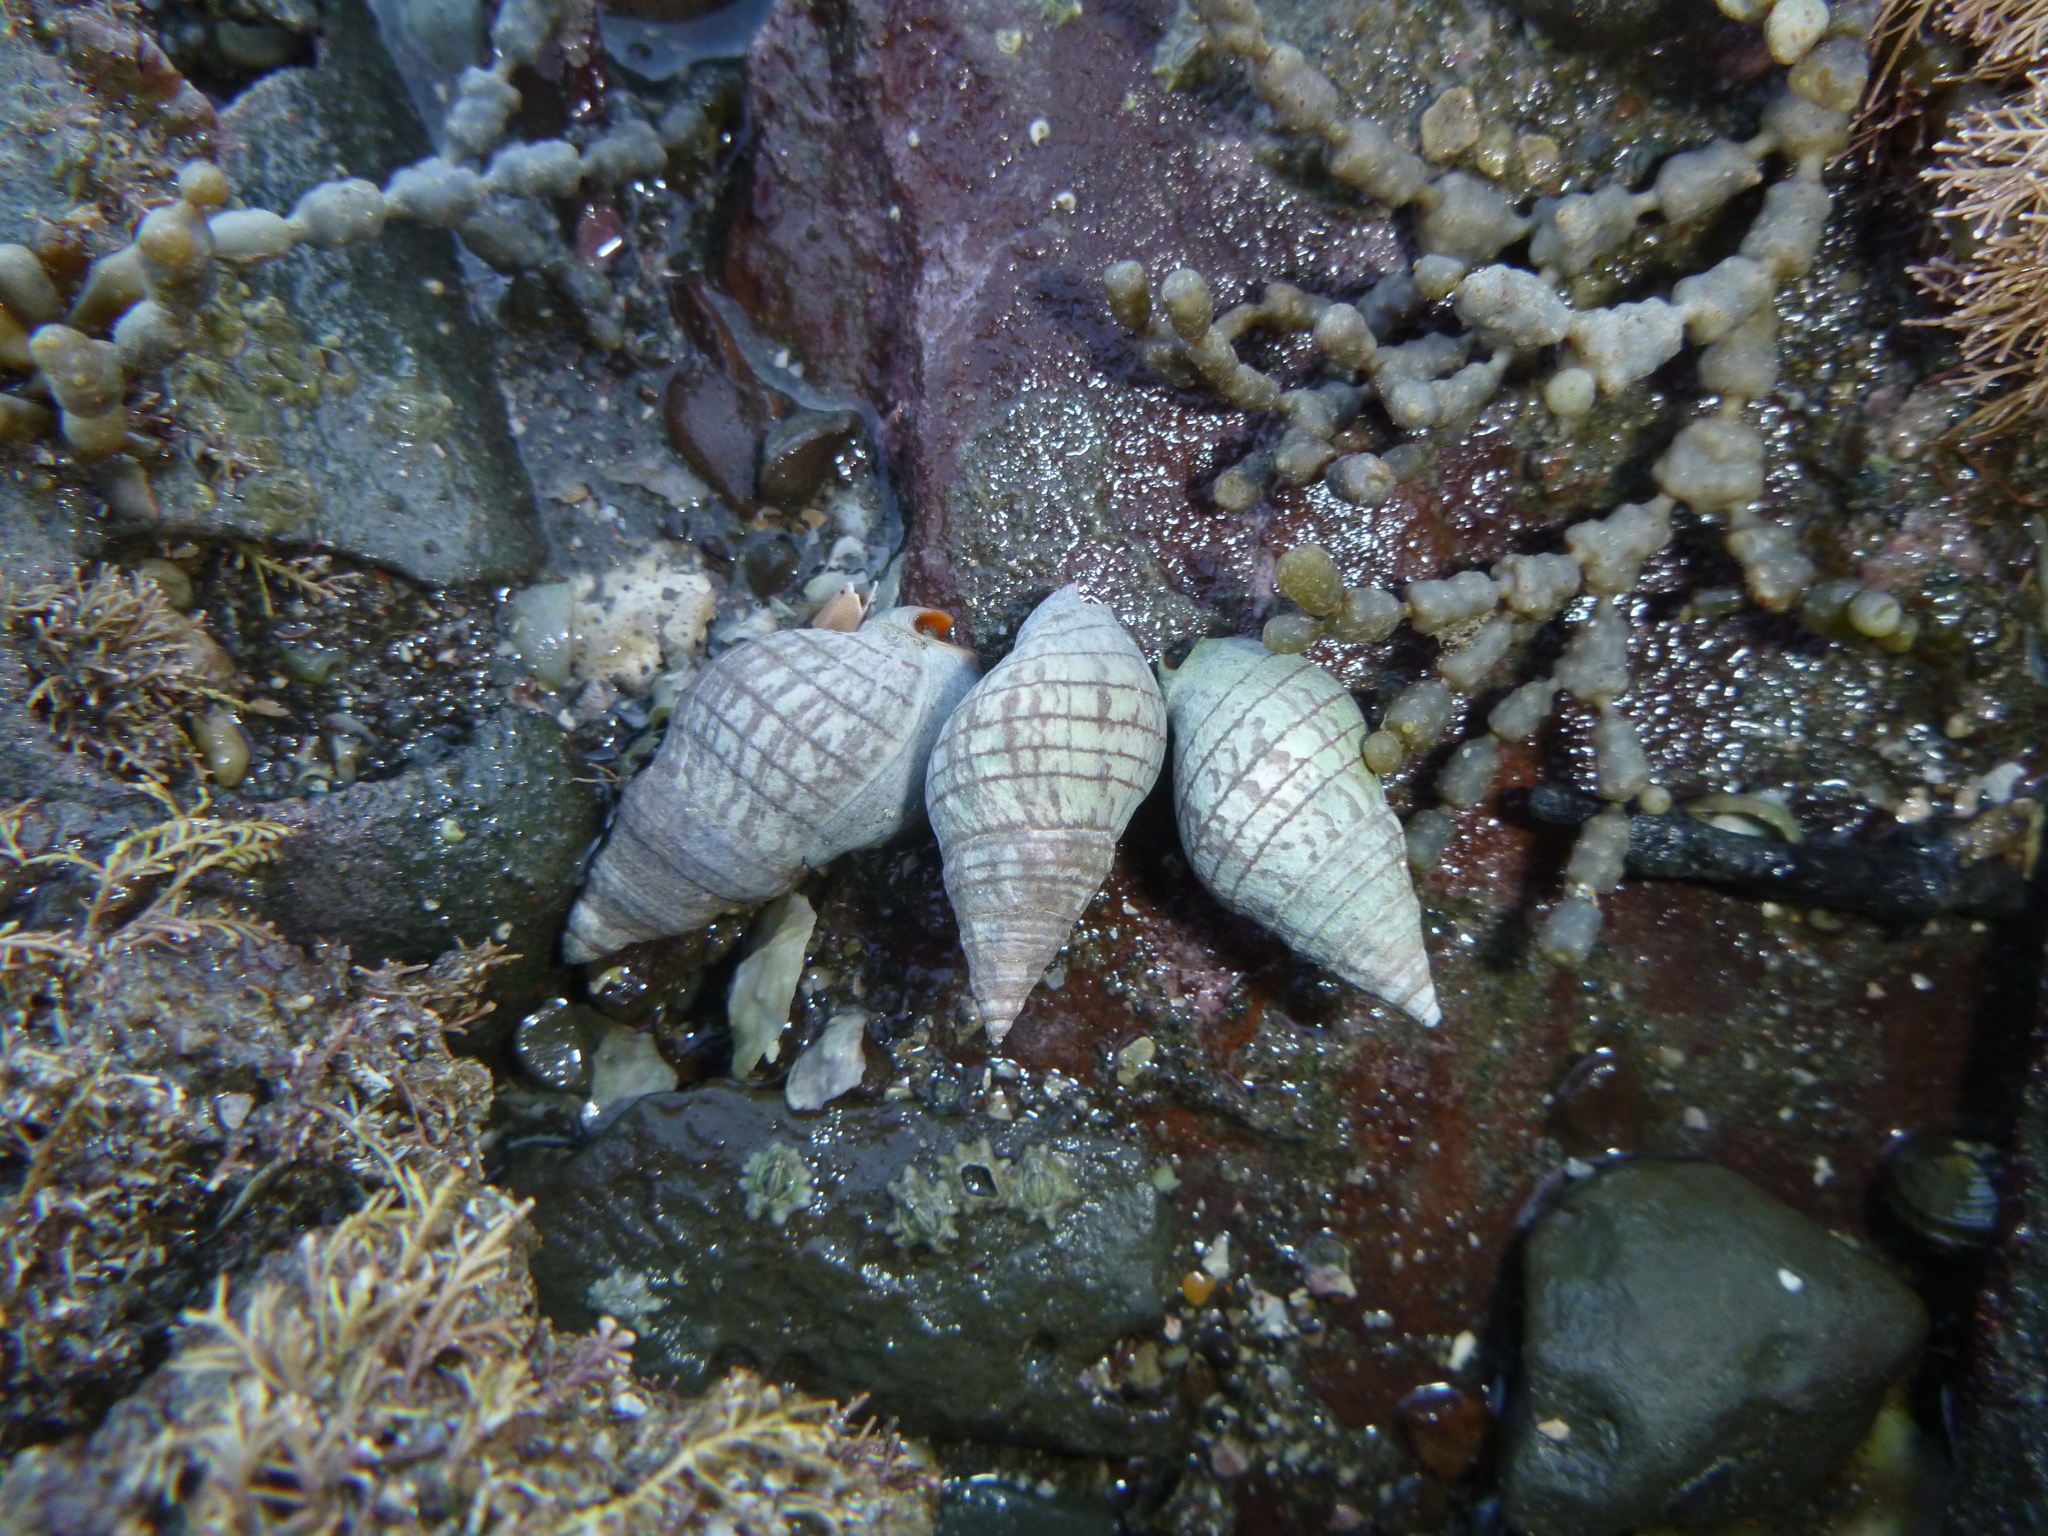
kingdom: Animalia
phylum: Mollusca
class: Gastropoda
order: Neogastropoda
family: Cominellidae
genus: Cominella
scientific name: Cominella virgata
